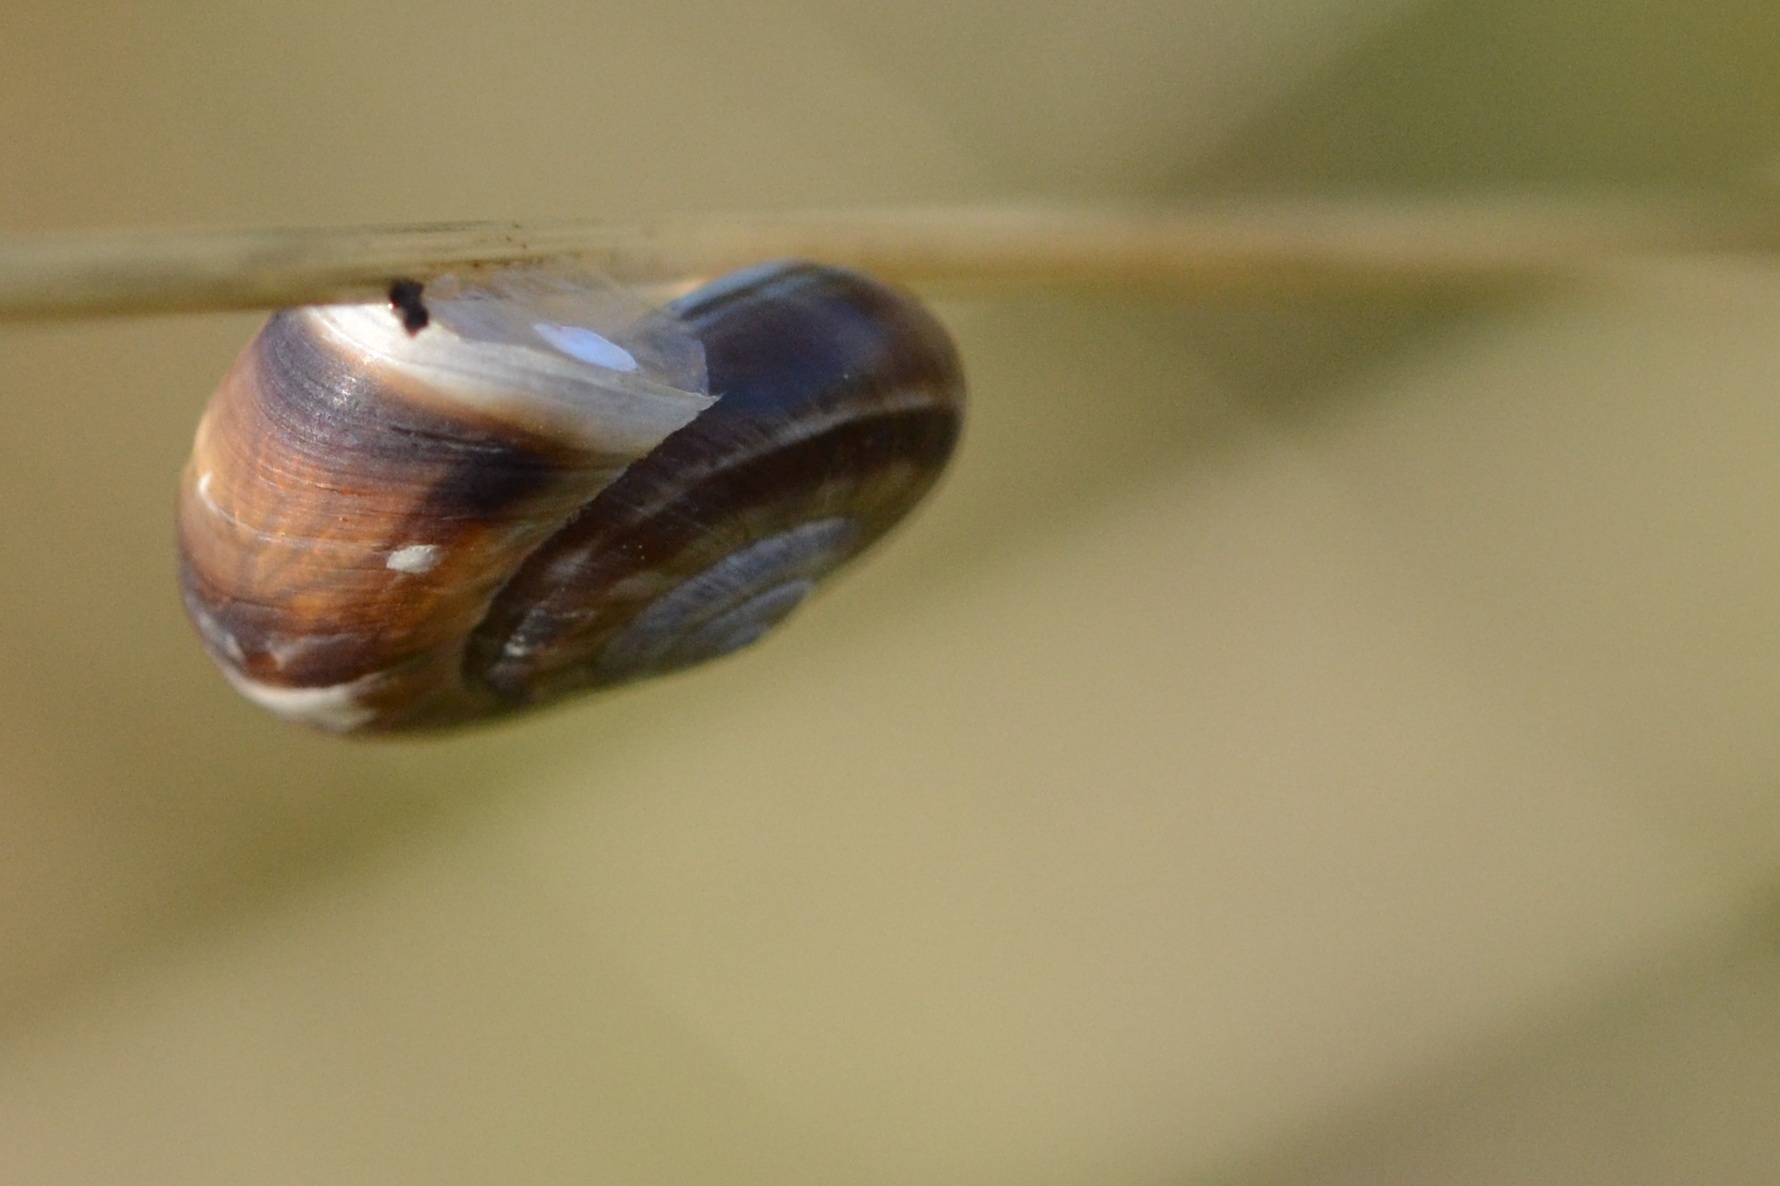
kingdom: Animalia
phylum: Mollusca
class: Gastropoda
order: Stylommatophora
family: Geomitridae
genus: Xerolenta
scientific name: Xerolenta obvia
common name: White heath snail
